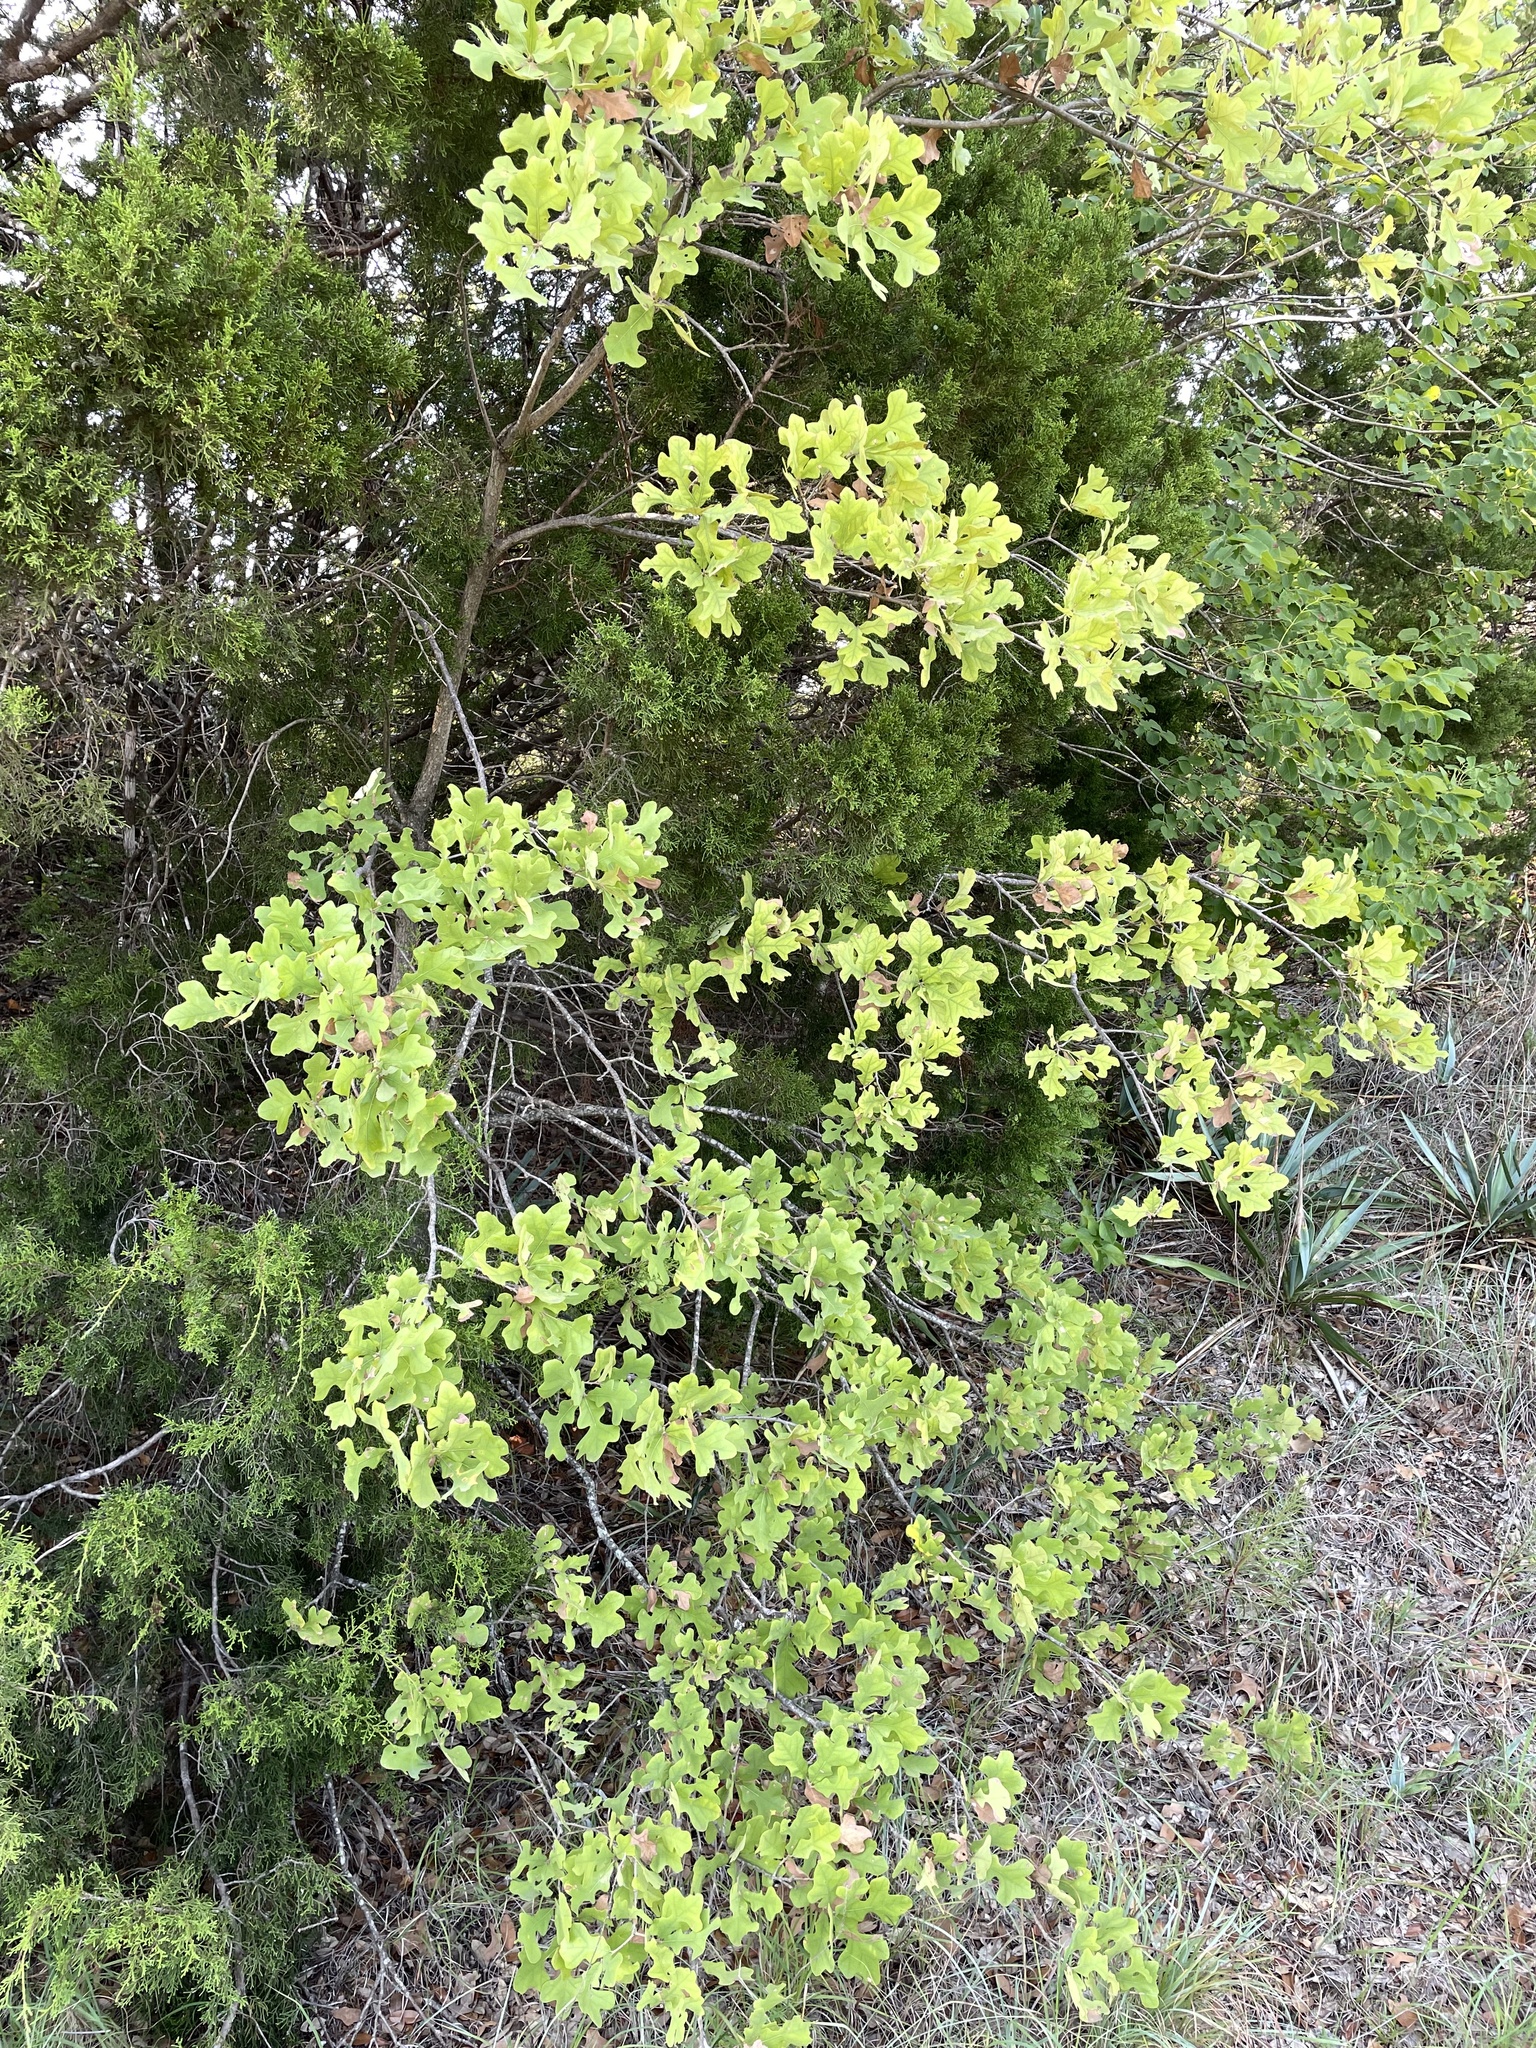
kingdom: Plantae
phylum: Tracheophyta
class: Magnoliopsida
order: Fagales
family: Fagaceae
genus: Quercus
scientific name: Quercus stellata
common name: Post oak
